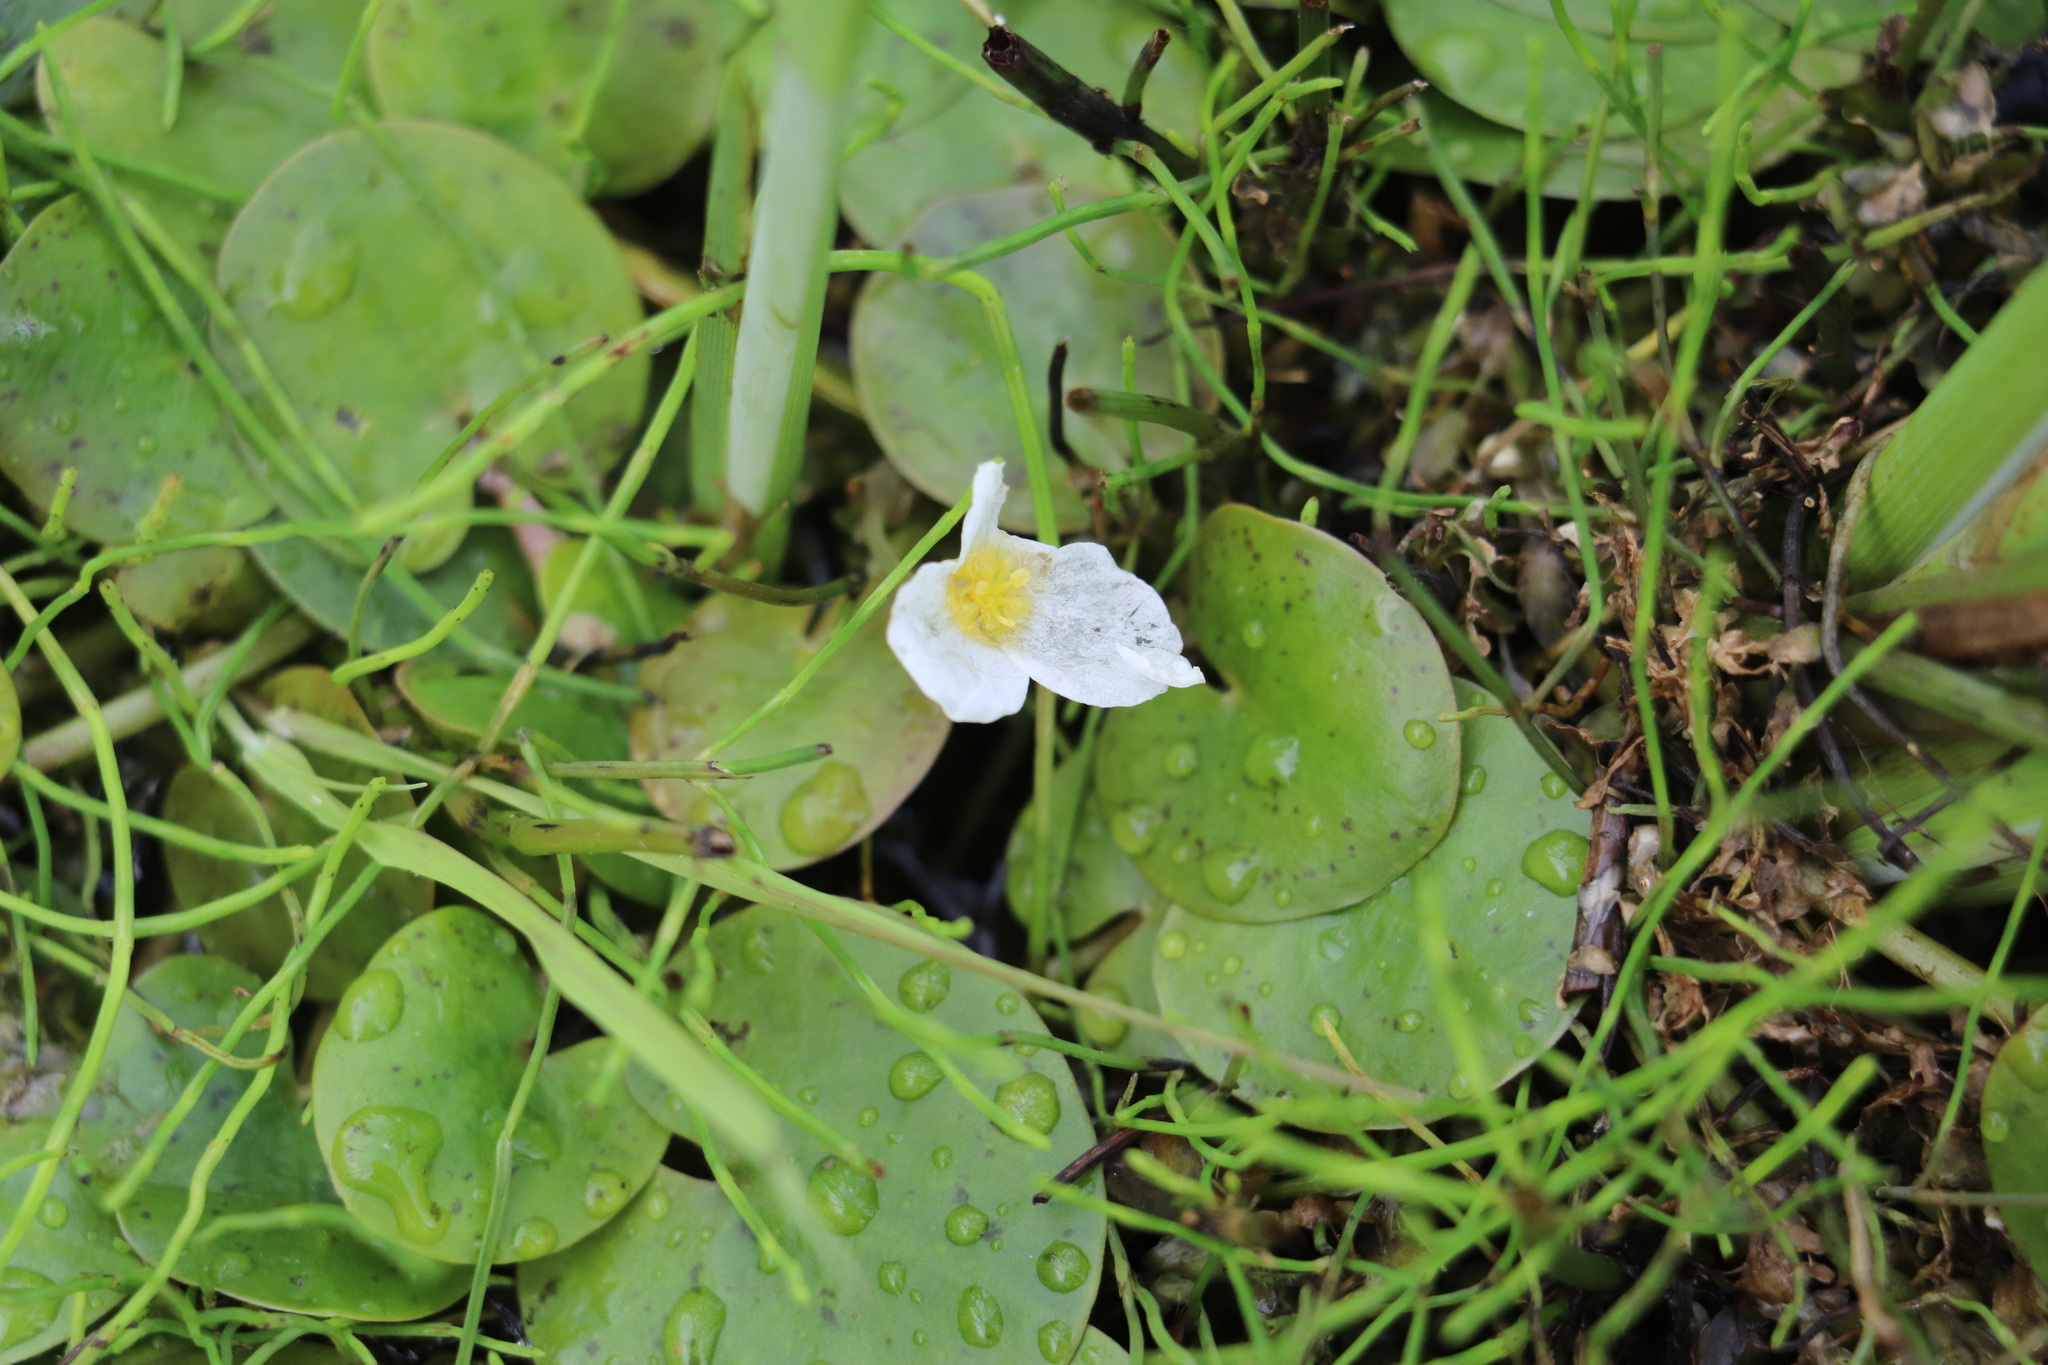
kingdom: Plantae
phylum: Tracheophyta
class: Liliopsida
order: Alismatales
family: Hydrocharitaceae
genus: Hydrocharis
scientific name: Hydrocharis morsus-ranae
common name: Frogbit
